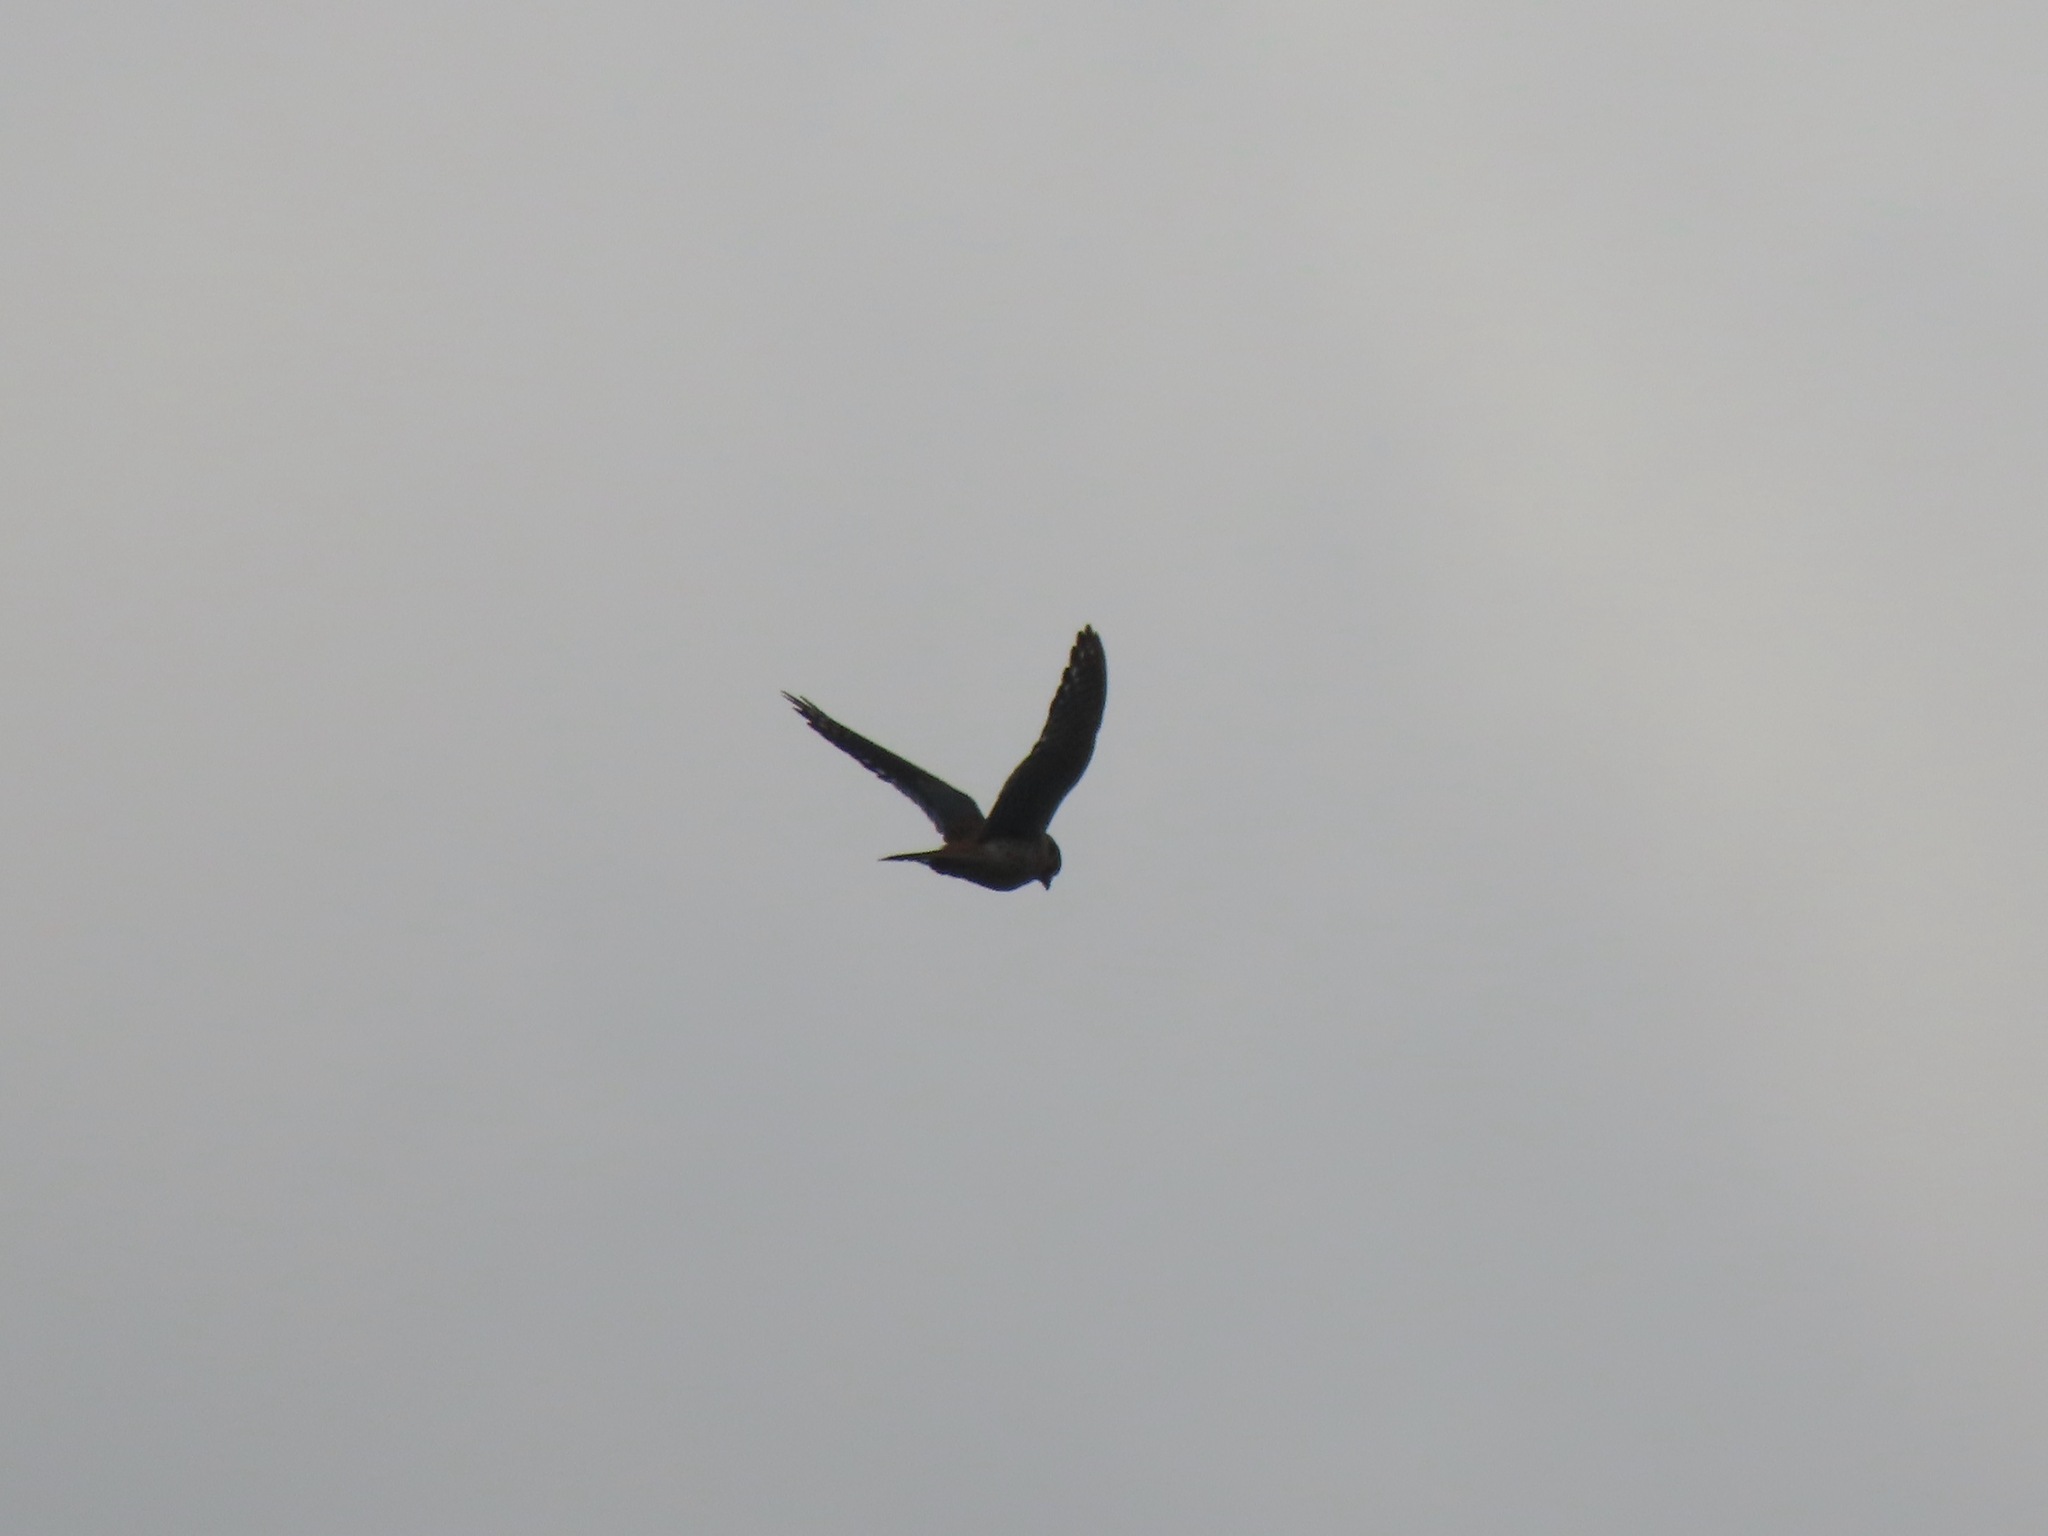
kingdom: Animalia
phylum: Chordata
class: Aves
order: Falconiformes
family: Falconidae
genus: Falco
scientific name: Falco sparverius
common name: American kestrel
